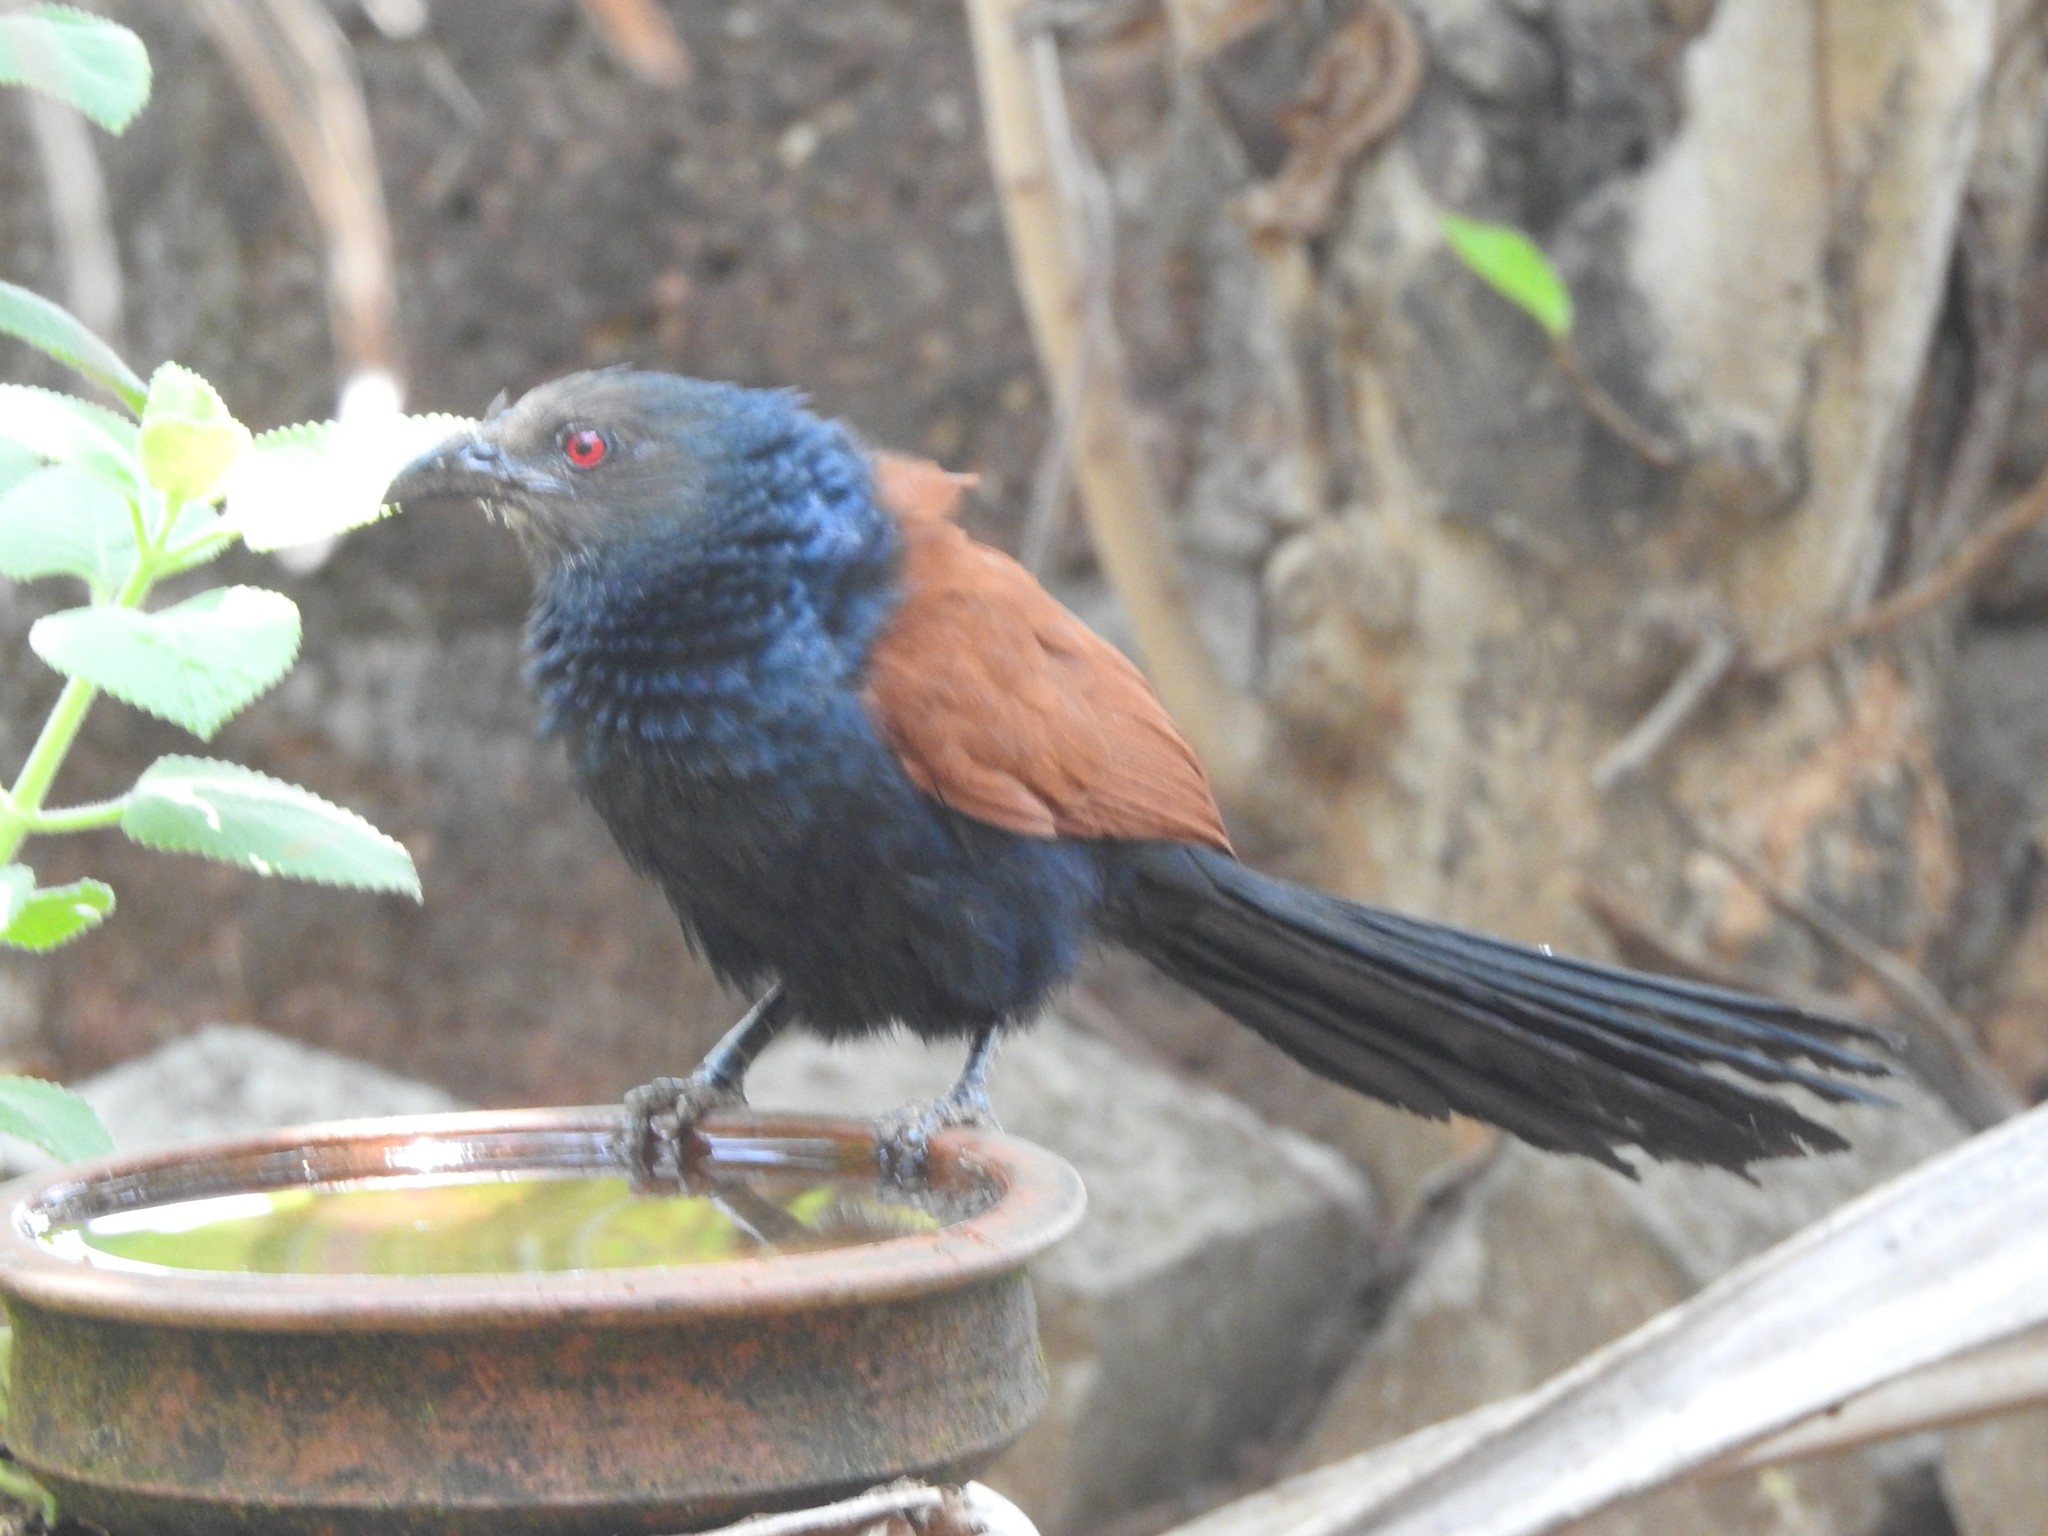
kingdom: Animalia
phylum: Chordata
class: Aves
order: Cuculiformes
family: Cuculidae
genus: Centropus
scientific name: Centropus sinensis
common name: Greater coucal
